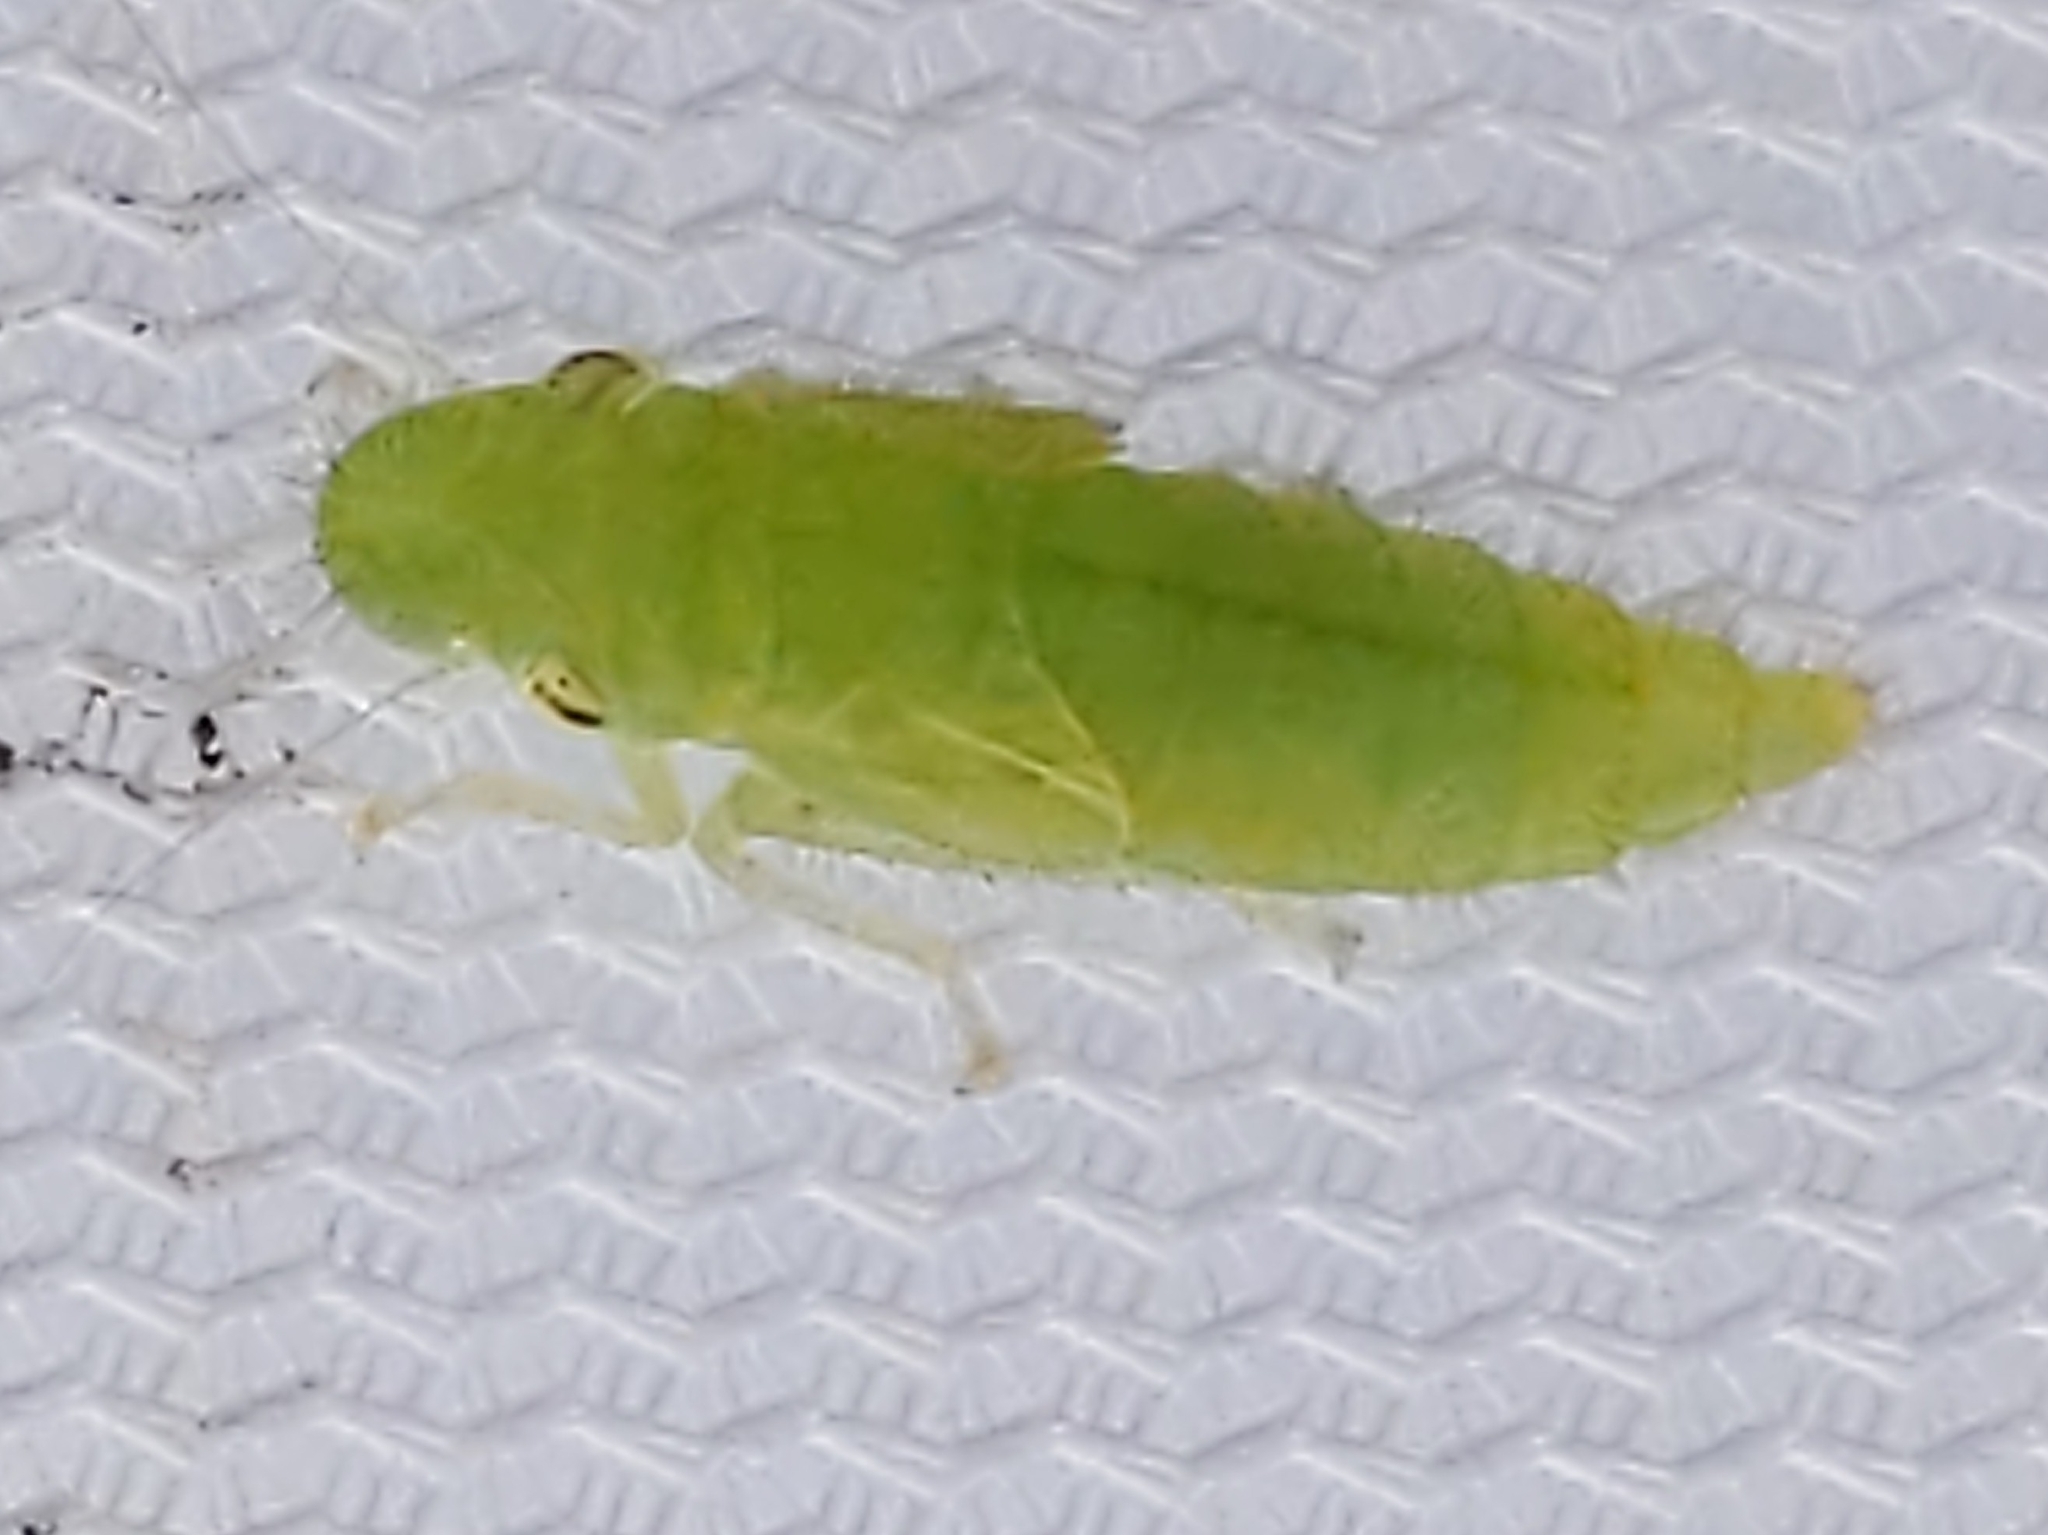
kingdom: Animalia
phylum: Arthropoda
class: Insecta
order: Hemiptera
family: Cicadellidae
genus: Paraulacizes
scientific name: Paraulacizes irrorata
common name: Speckled sharpshooter
